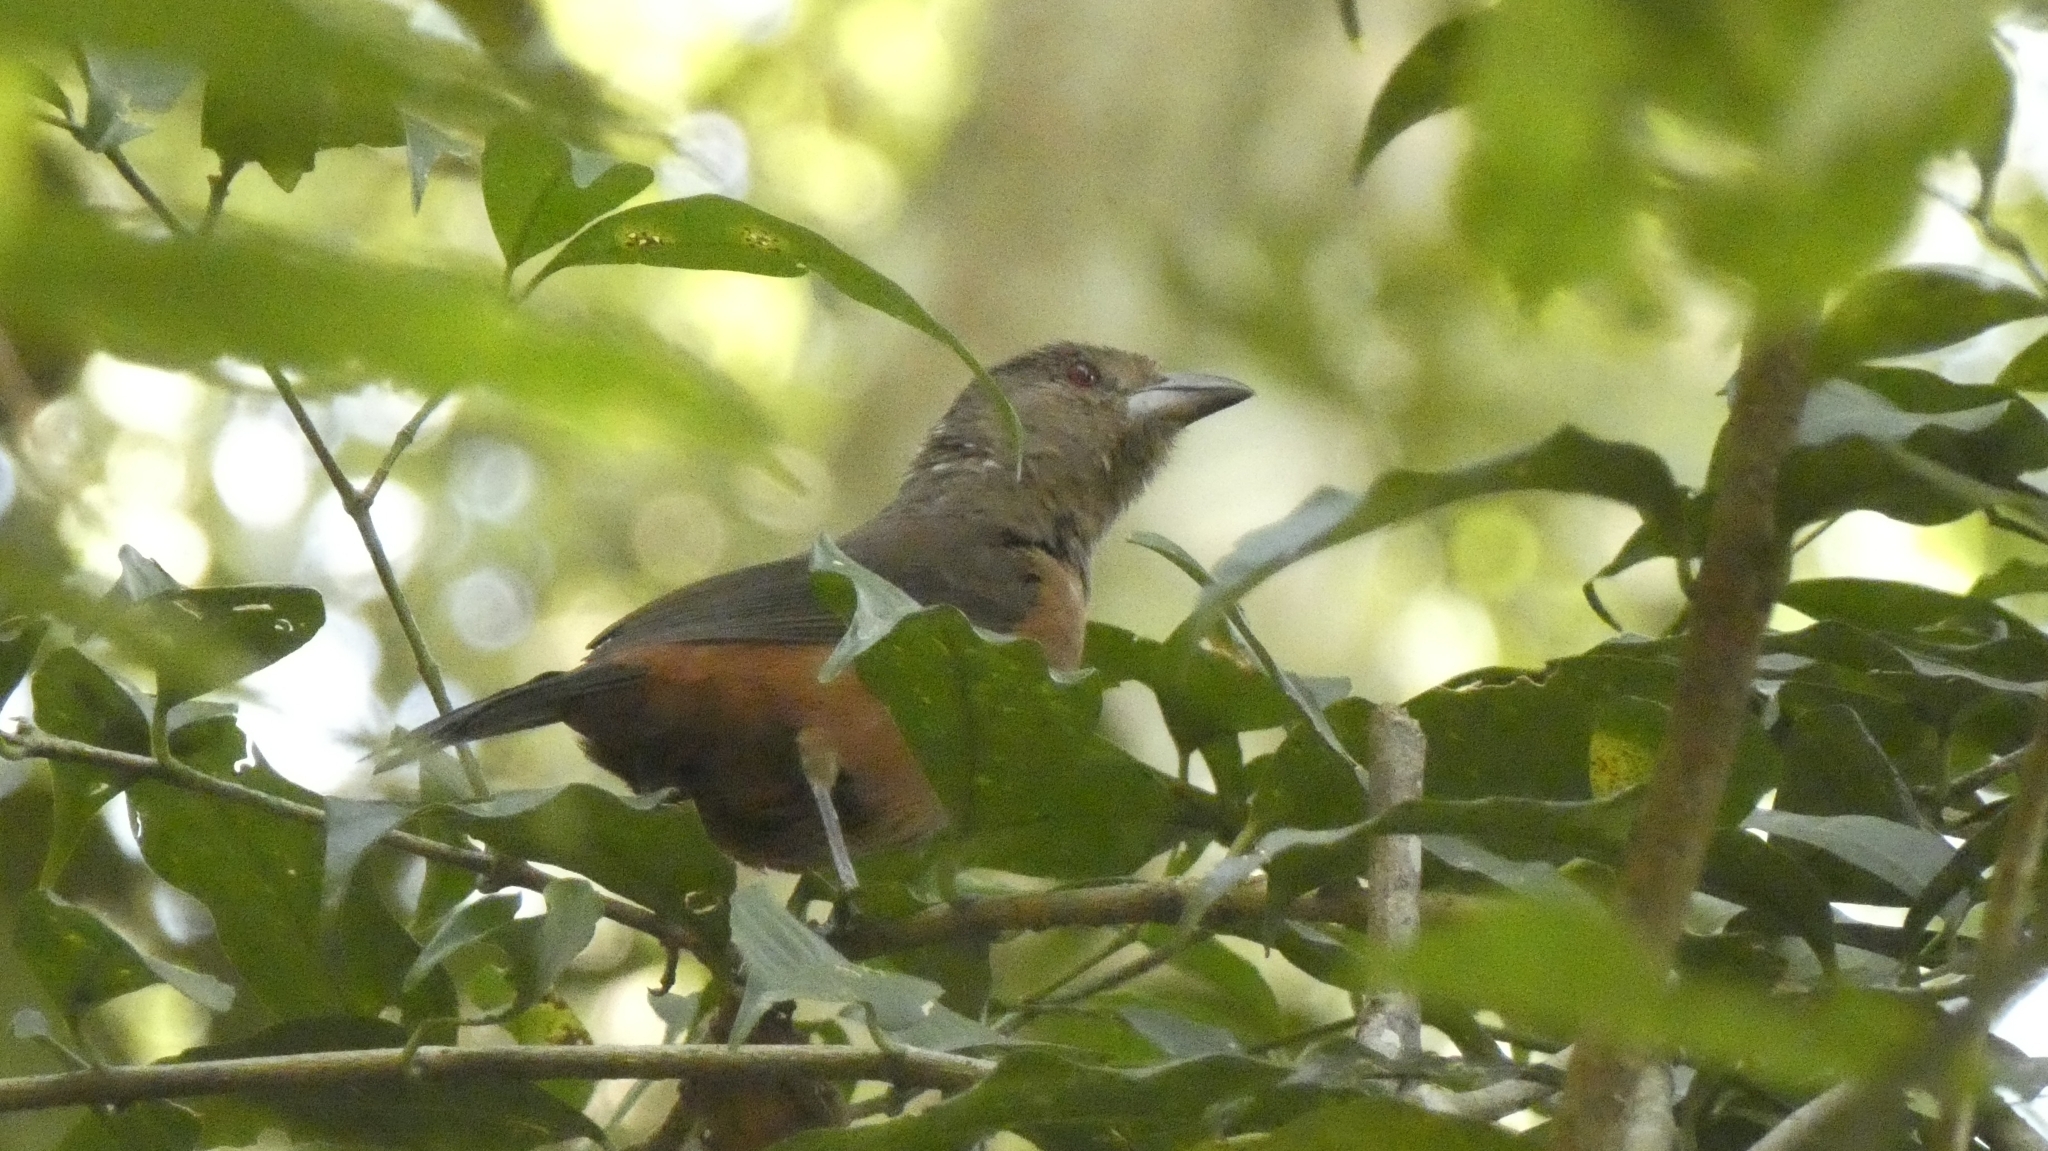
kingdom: Animalia
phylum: Chordata
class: Aves
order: Passeriformes
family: Thraupidae
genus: Ramphocelus
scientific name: Ramphocelus bresilia
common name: Brazilian tanager
